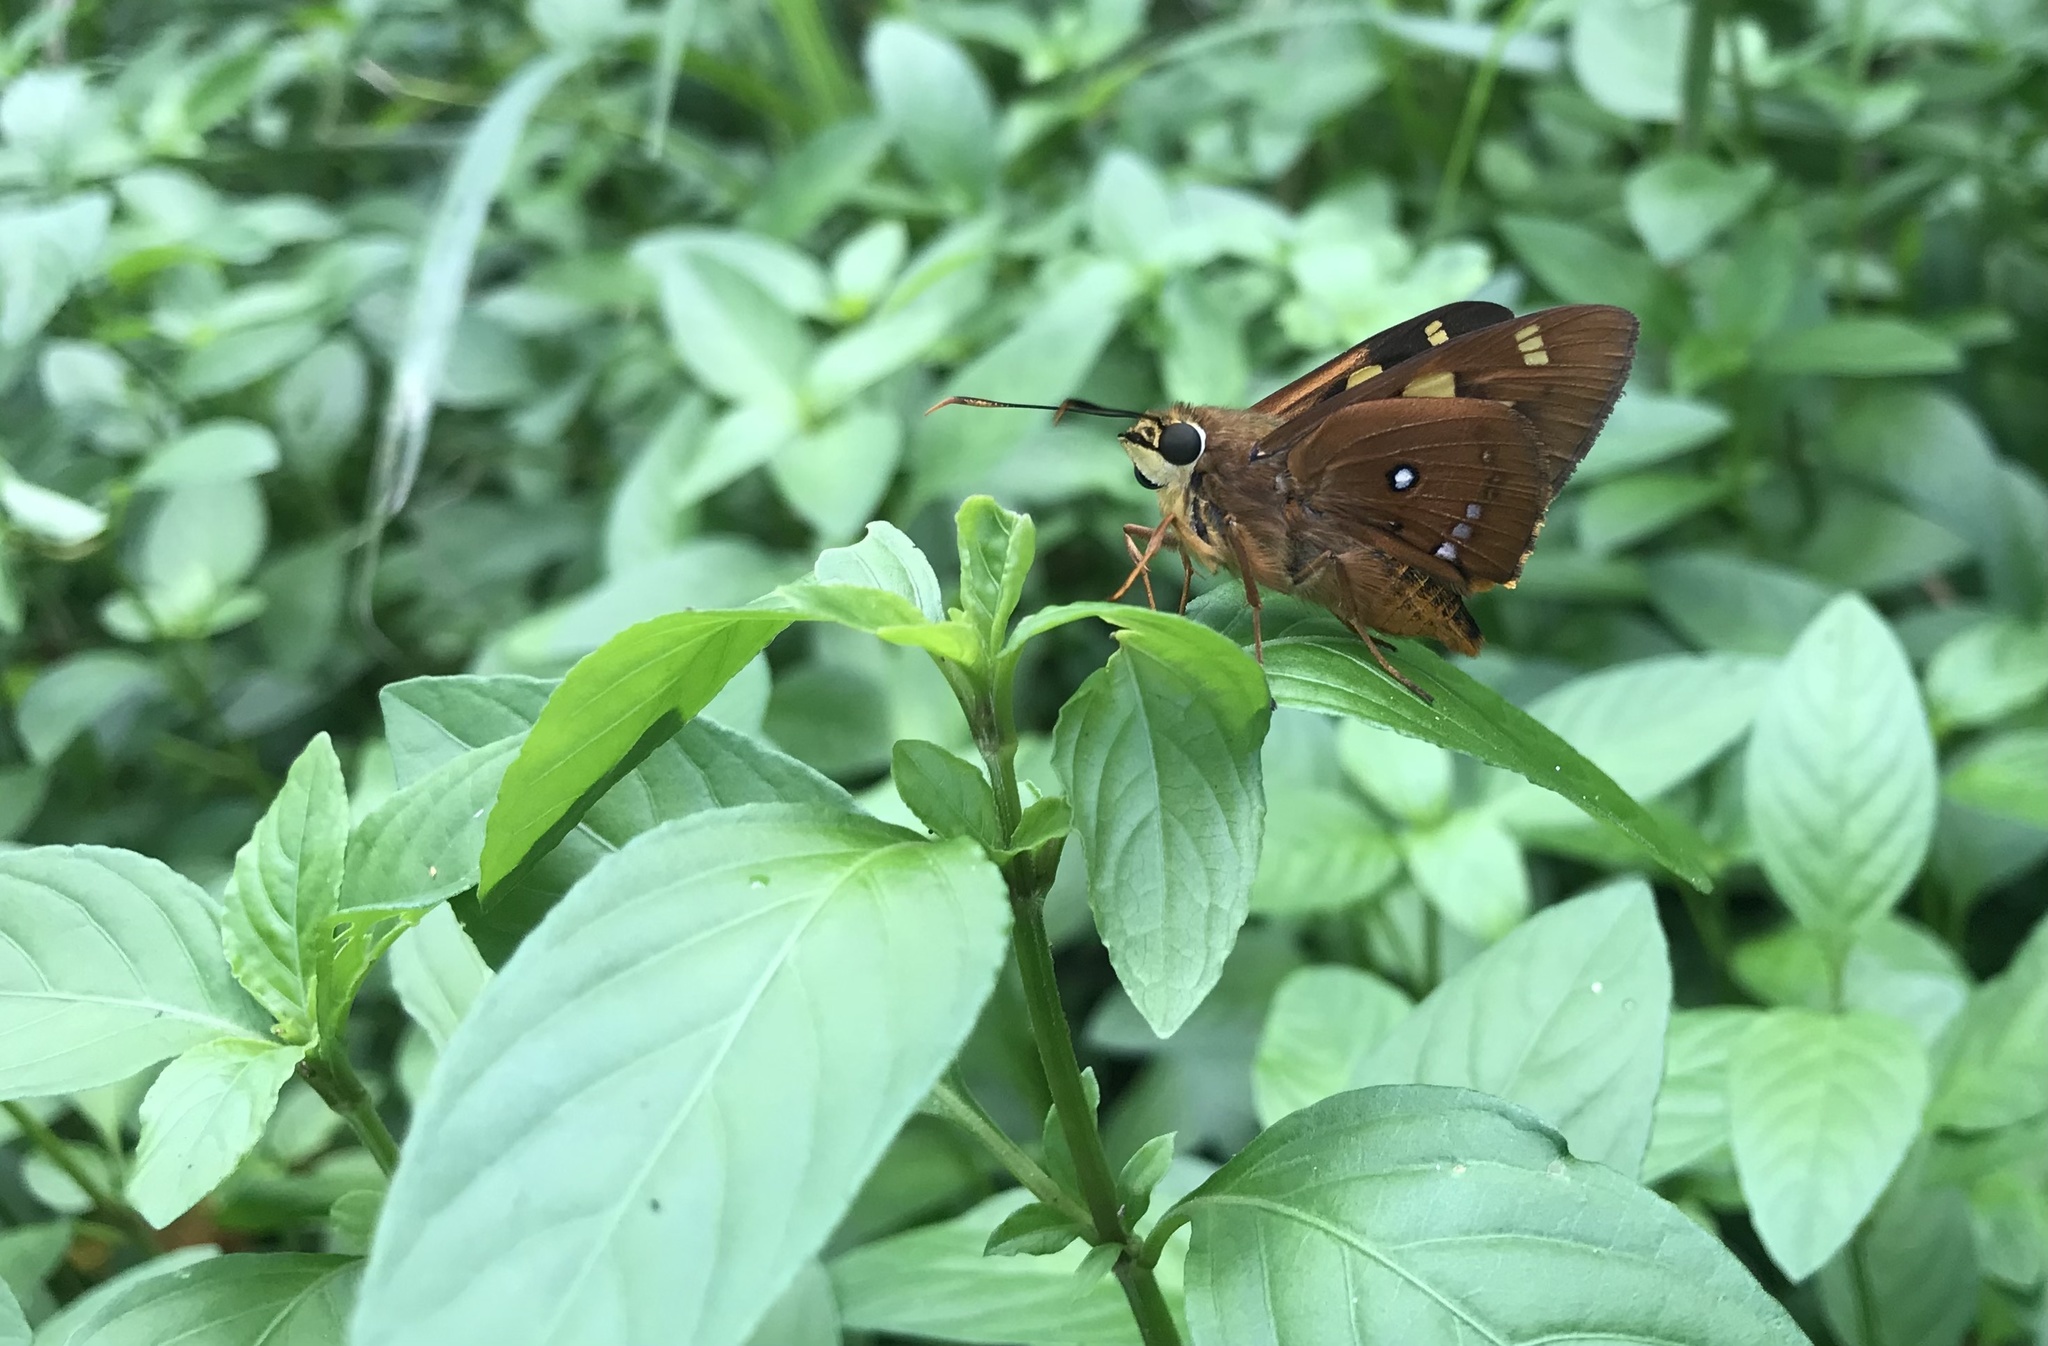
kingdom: Animalia
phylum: Arthropoda
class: Insecta
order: Lepidoptera
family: Hesperiidae
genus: Trapezites
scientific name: Trapezites symmomus
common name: Splendid ochre
